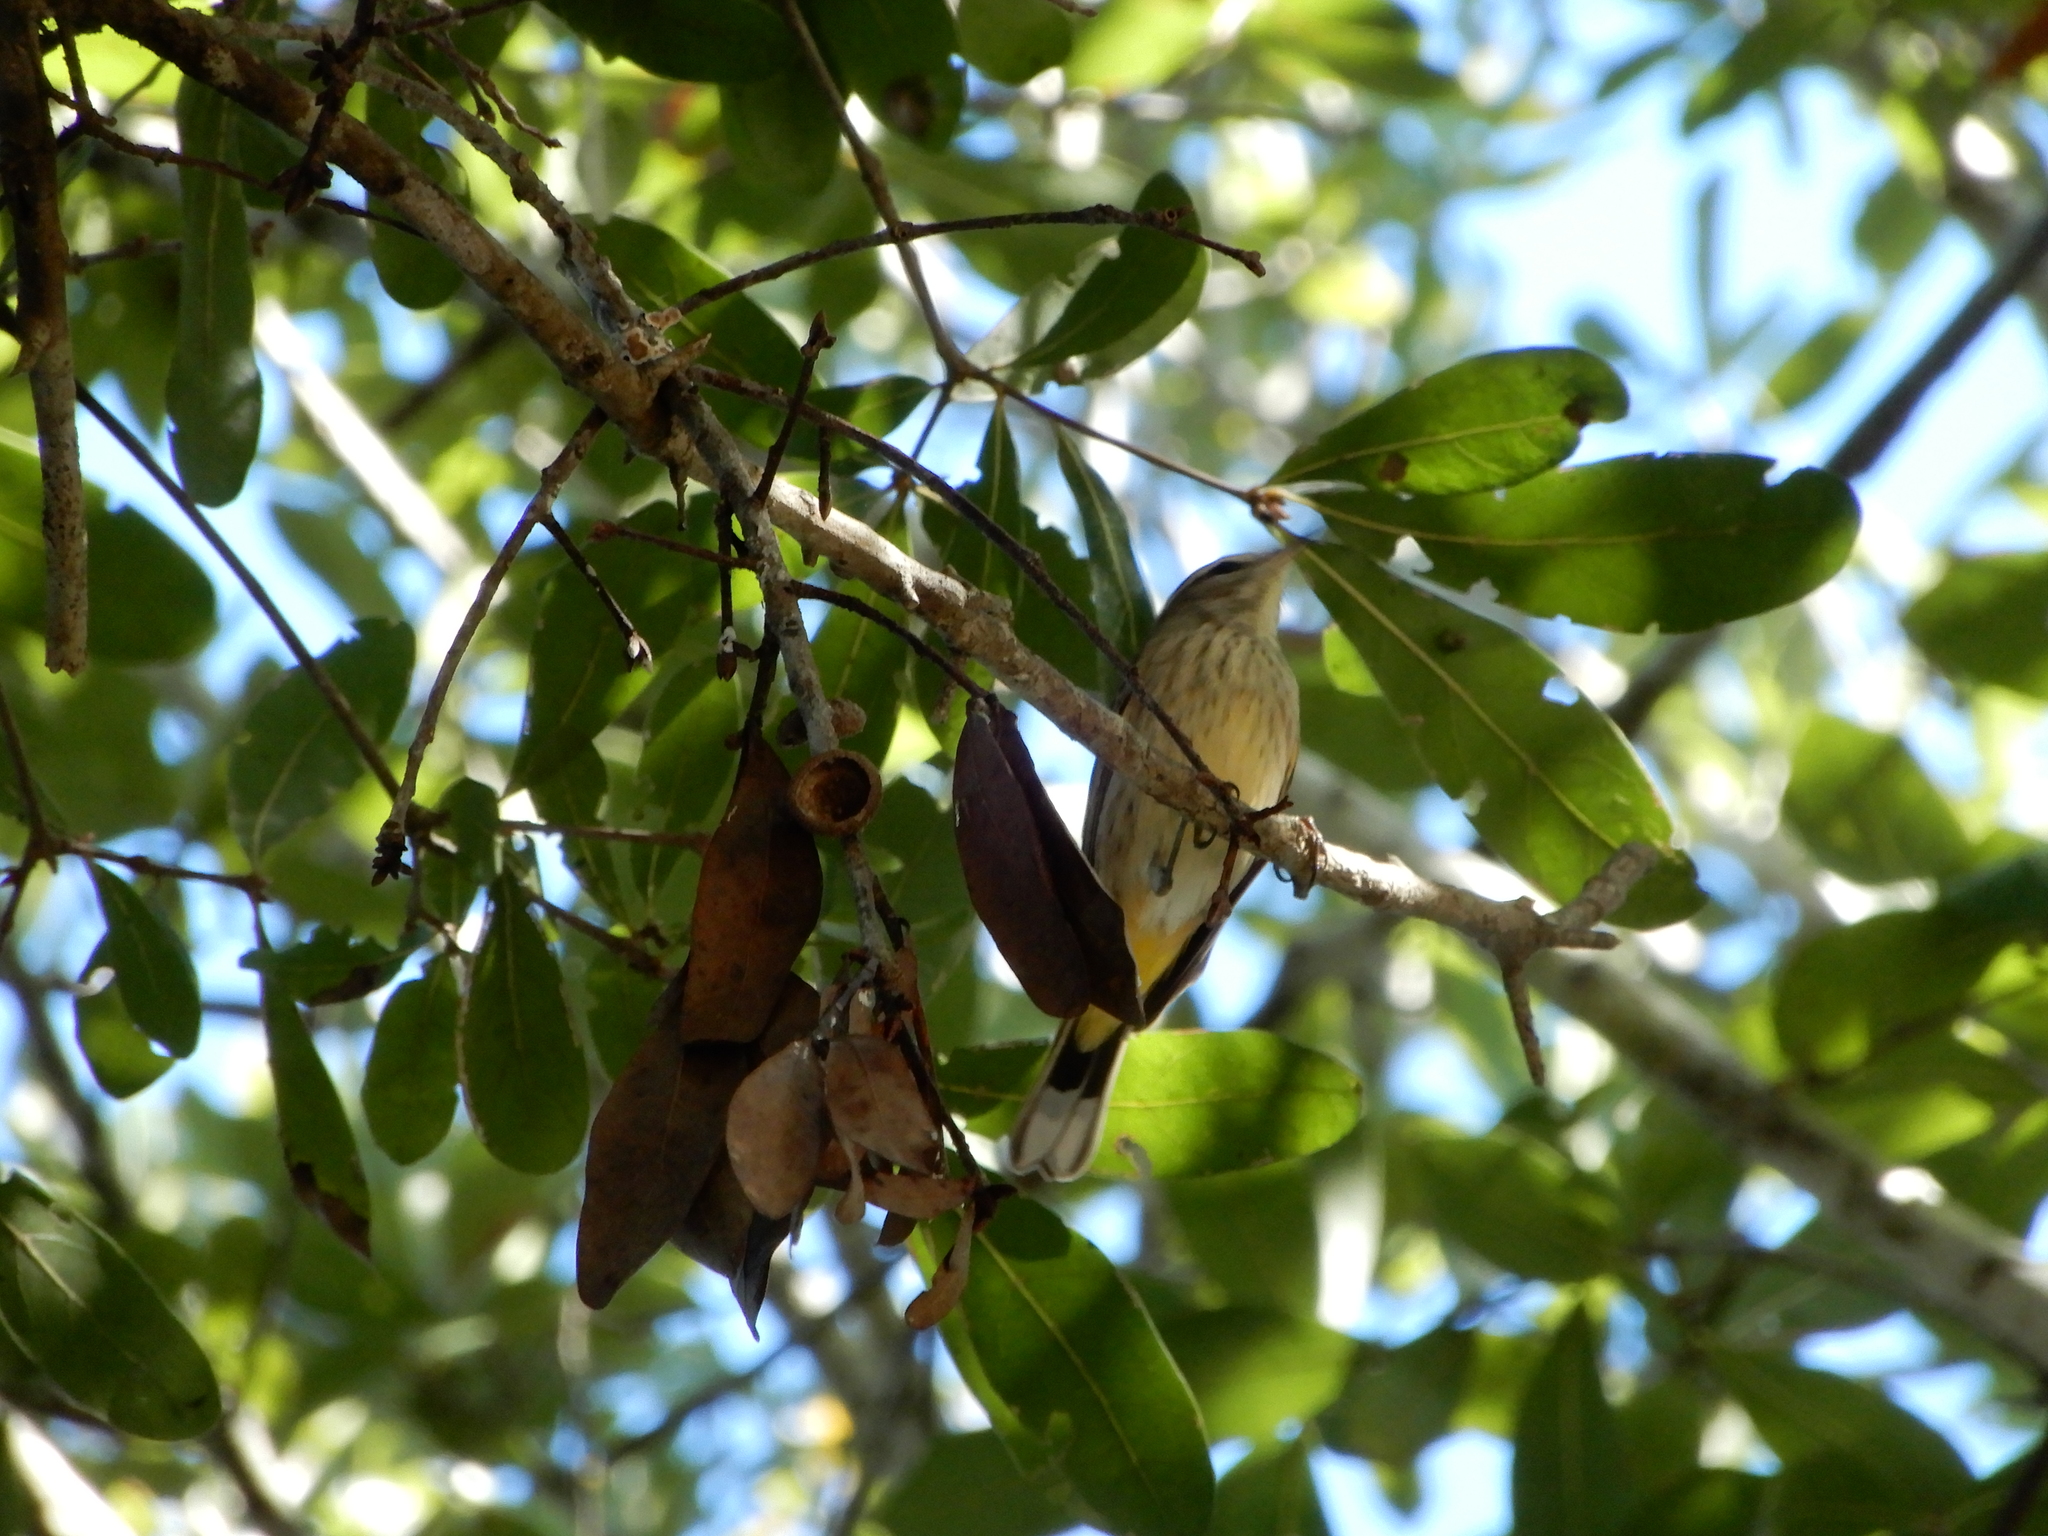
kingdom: Animalia
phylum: Chordata
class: Aves
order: Passeriformes
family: Parulidae
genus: Setophaga
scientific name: Setophaga palmarum
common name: Palm warbler
